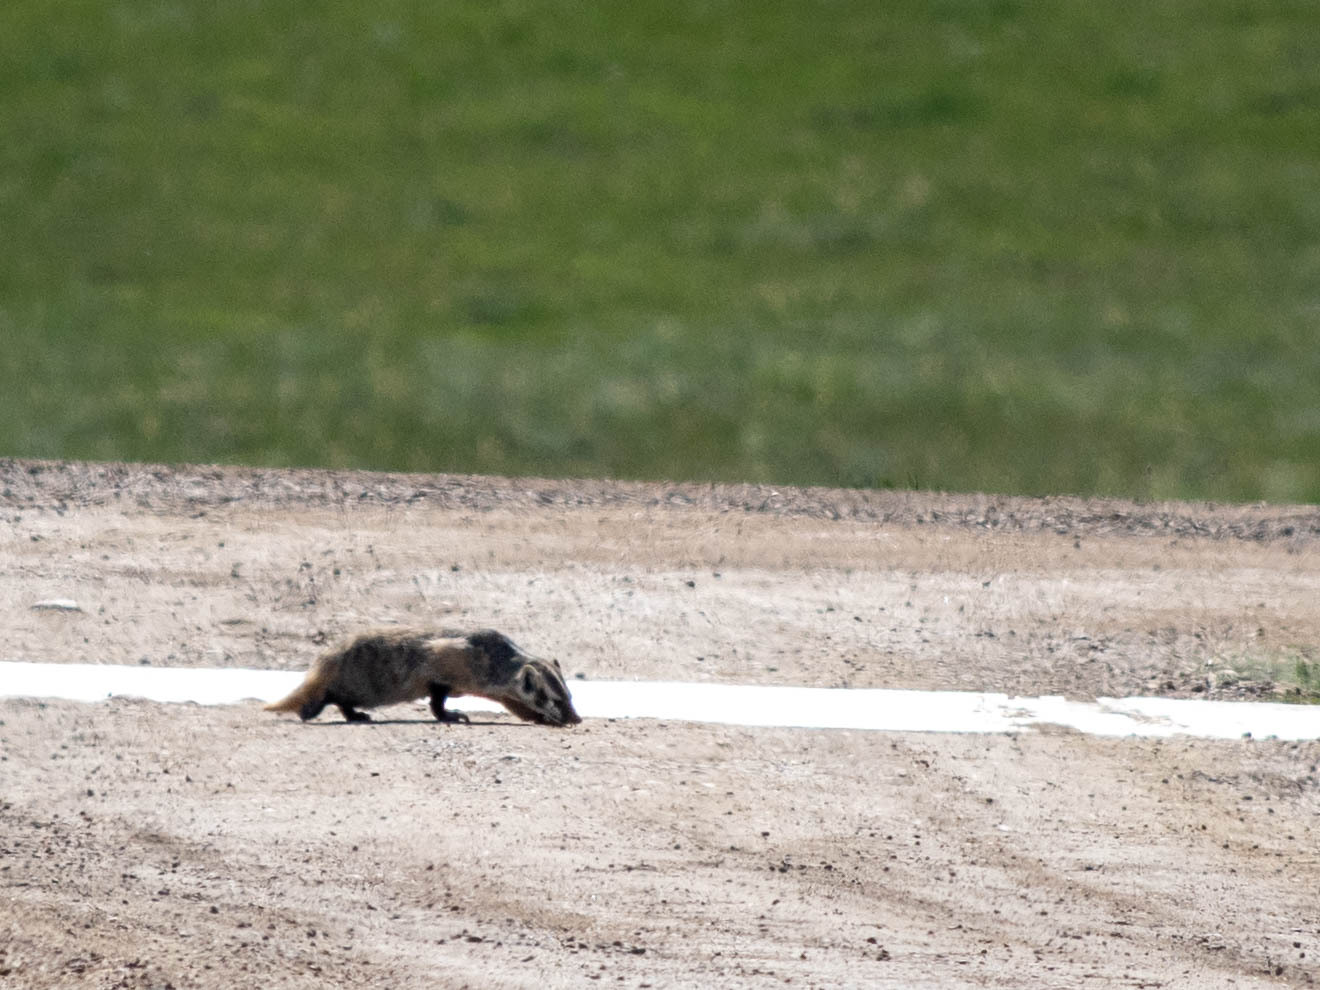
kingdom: Animalia
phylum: Chordata
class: Mammalia
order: Carnivora
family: Mustelidae
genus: Taxidea
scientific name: Taxidea taxus
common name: American badger
